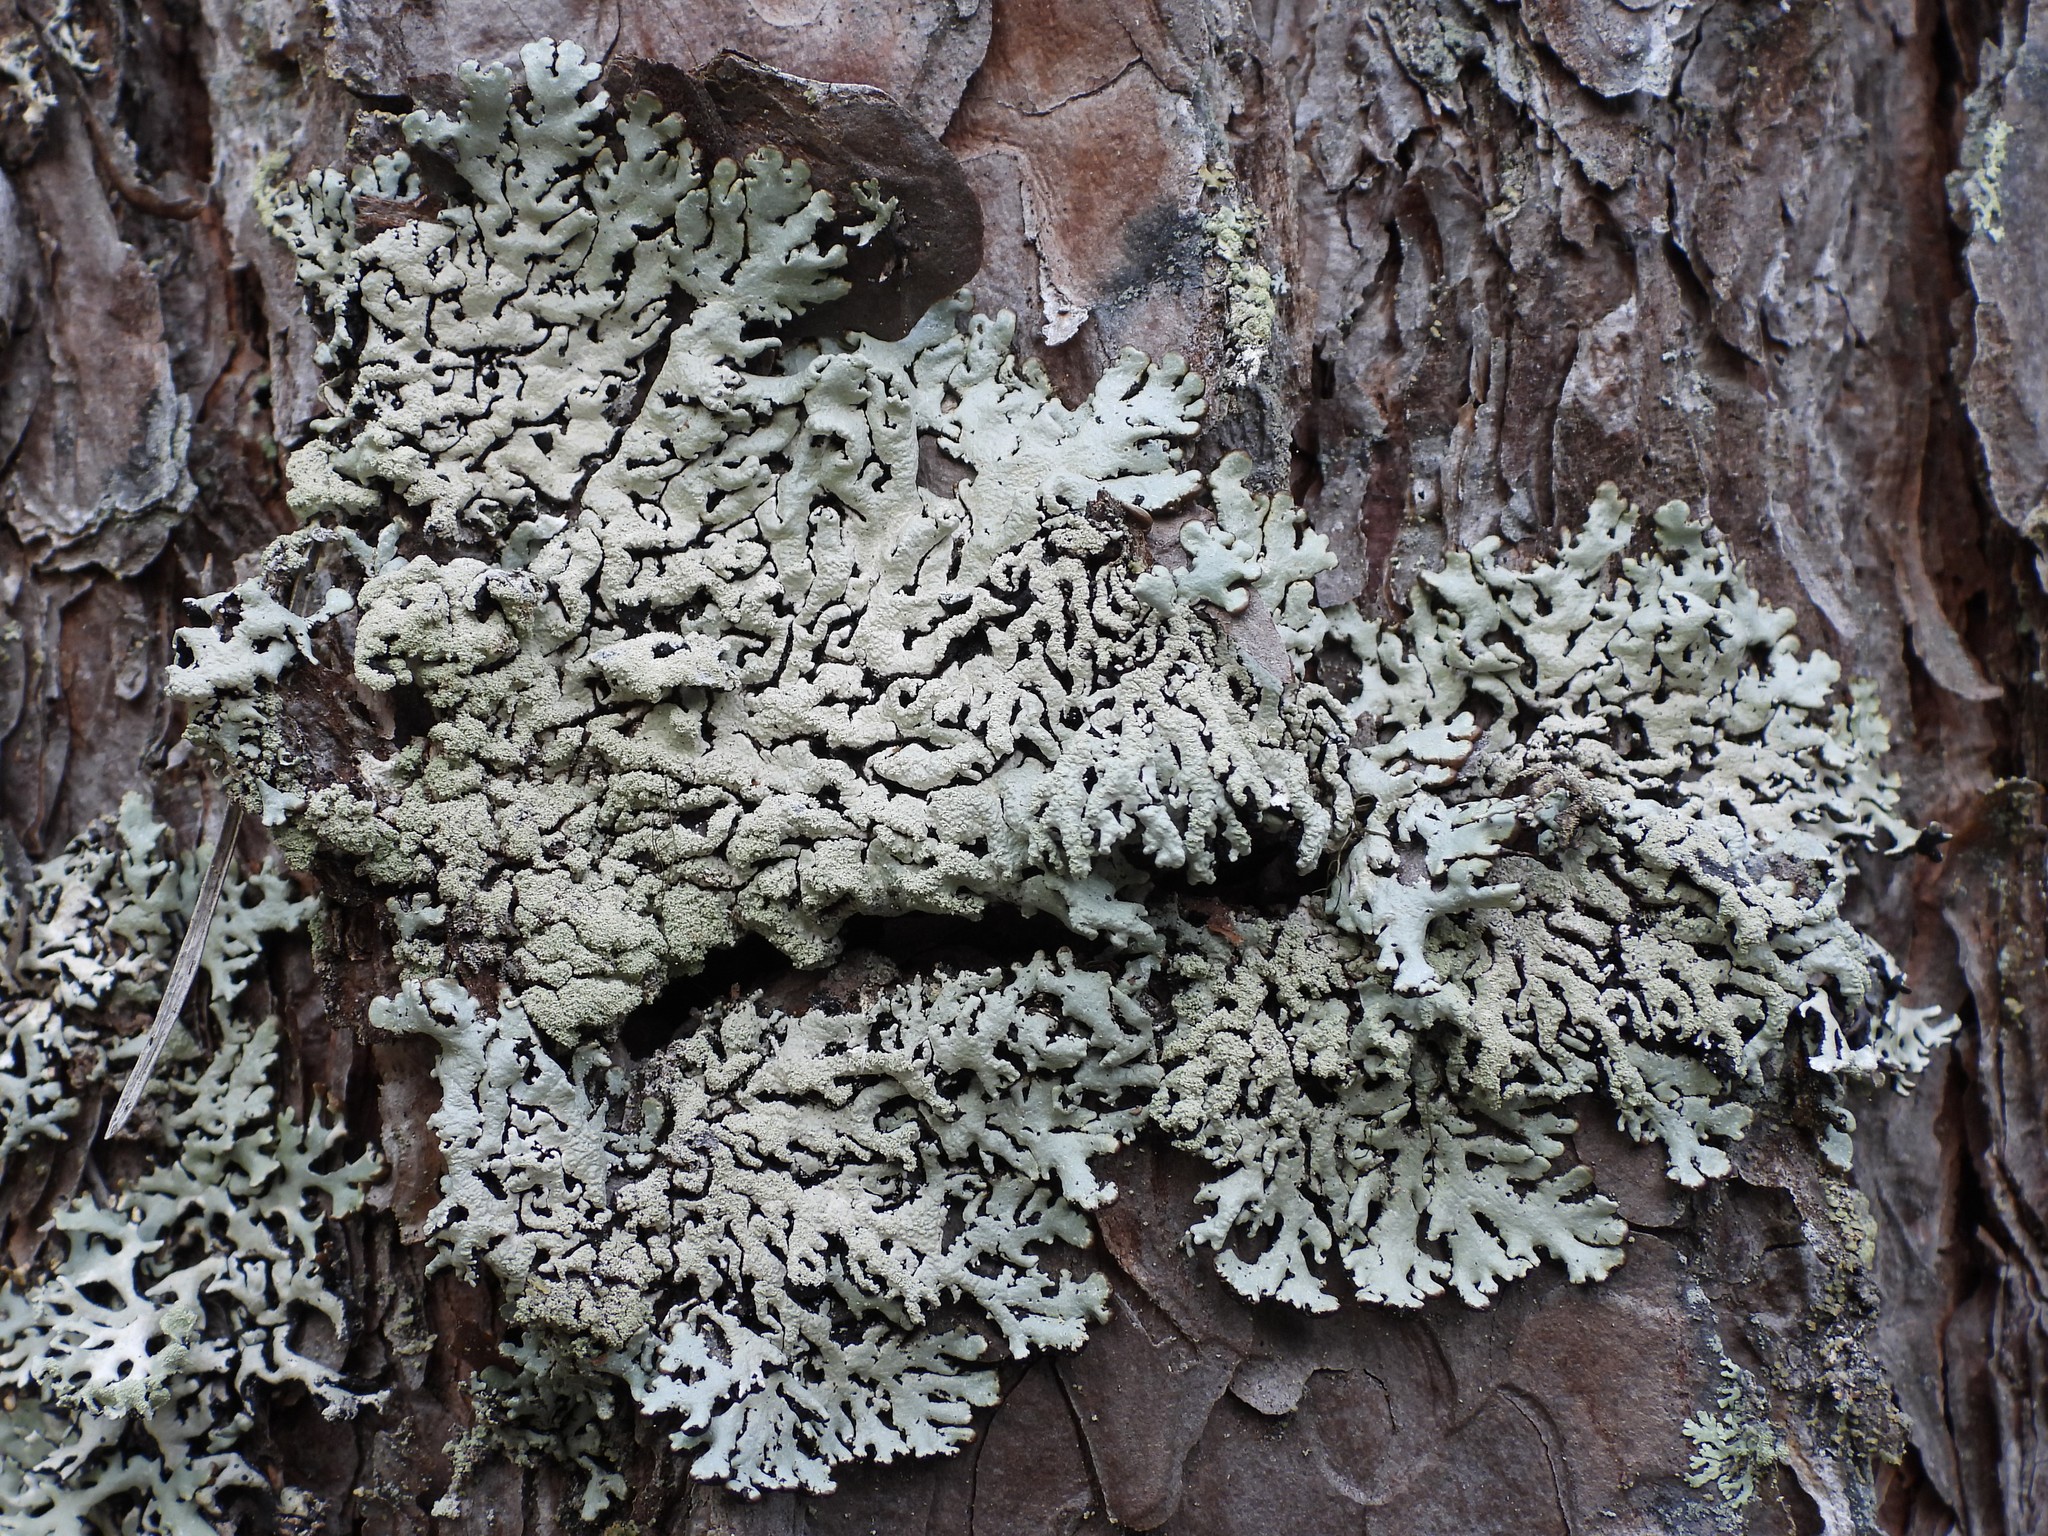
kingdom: Fungi
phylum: Ascomycota
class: Lecanoromycetes
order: Lecanorales
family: Parmeliaceae
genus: Hypogymnia
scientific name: Hypogymnia farinacea
